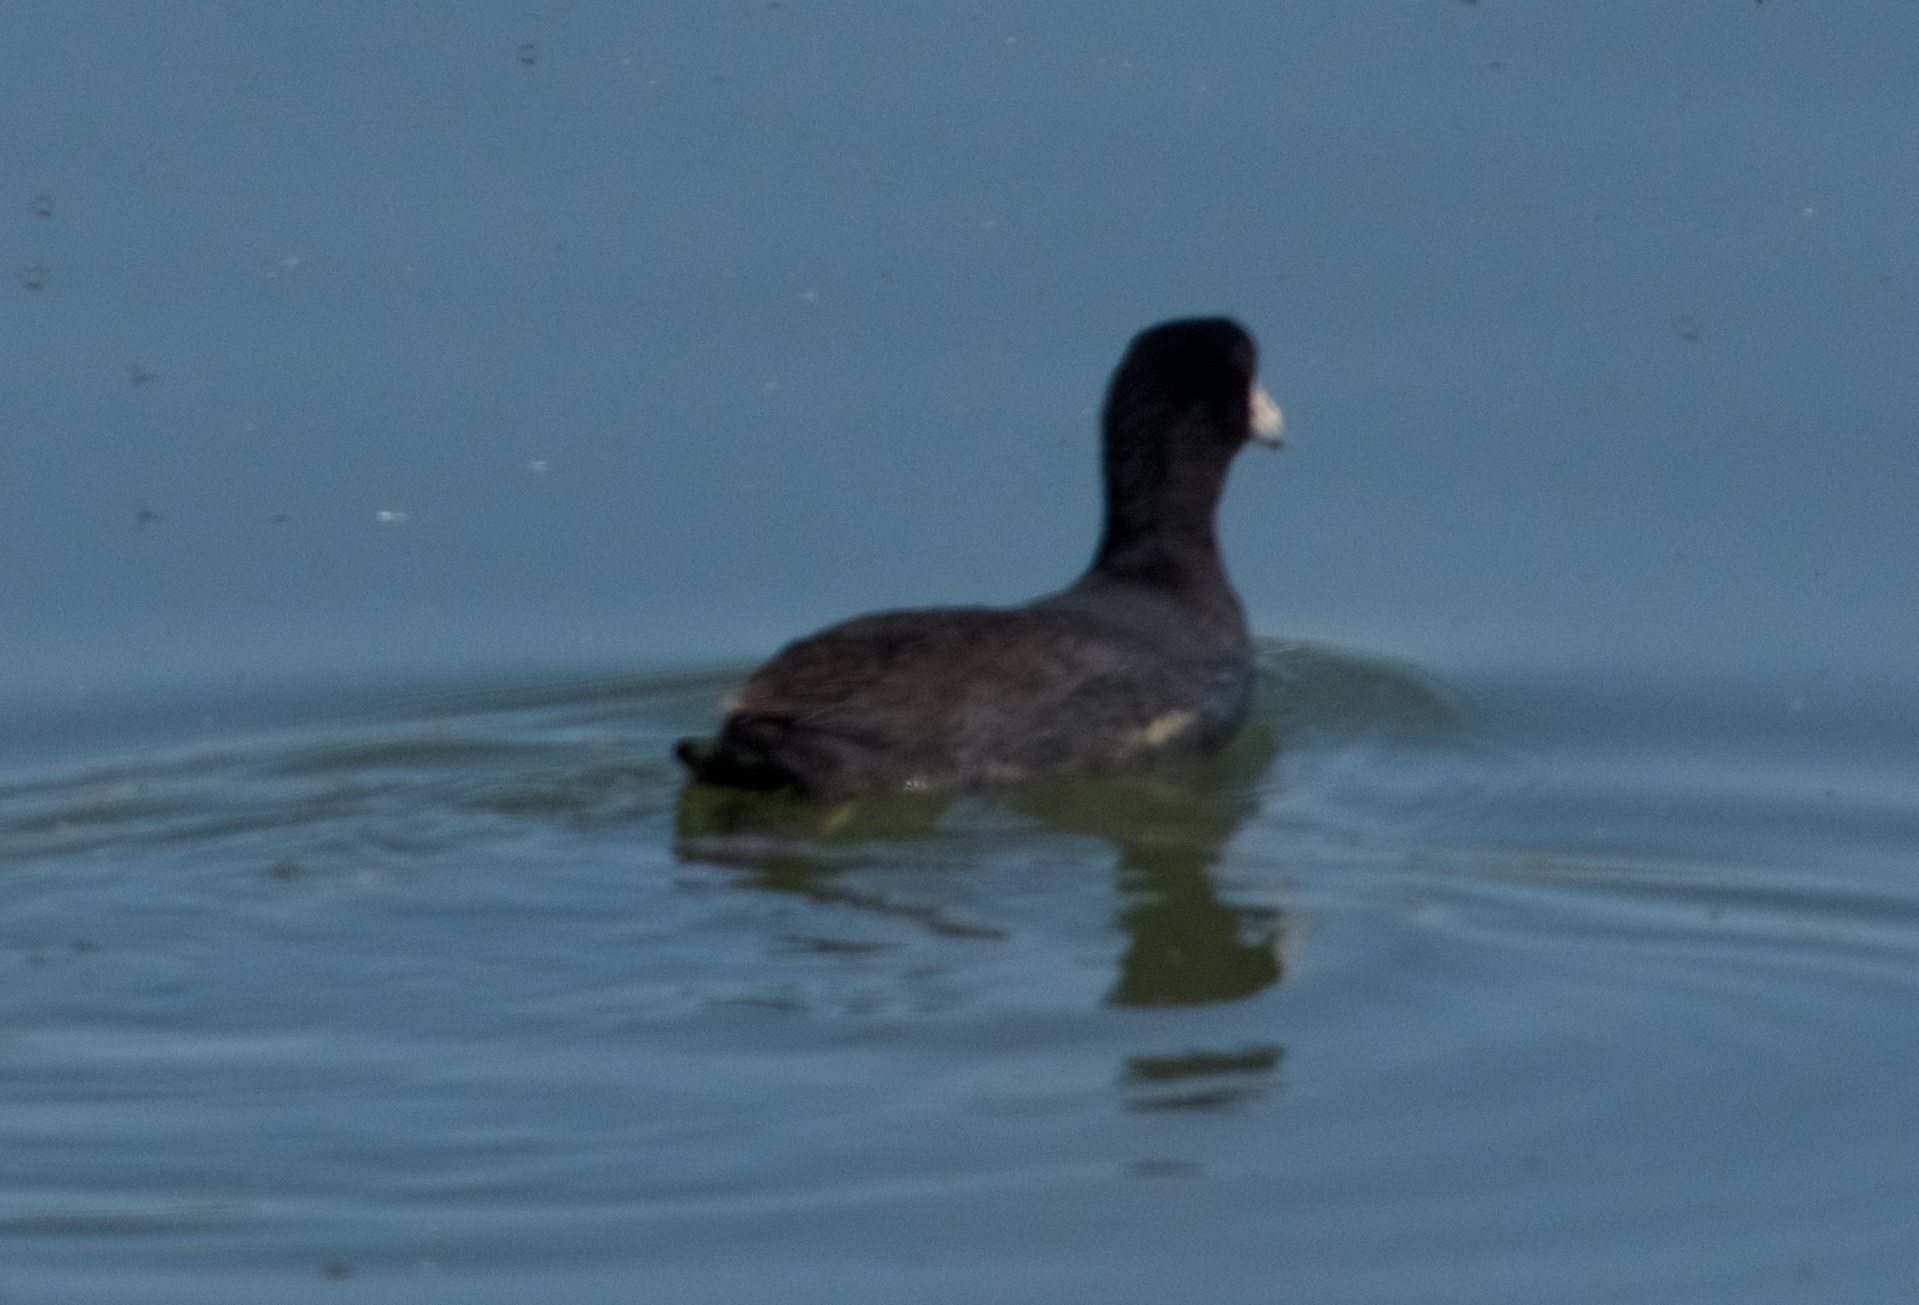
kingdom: Animalia
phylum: Chordata
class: Aves
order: Gruiformes
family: Rallidae
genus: Fulica
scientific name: Fulica americana
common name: American coot
